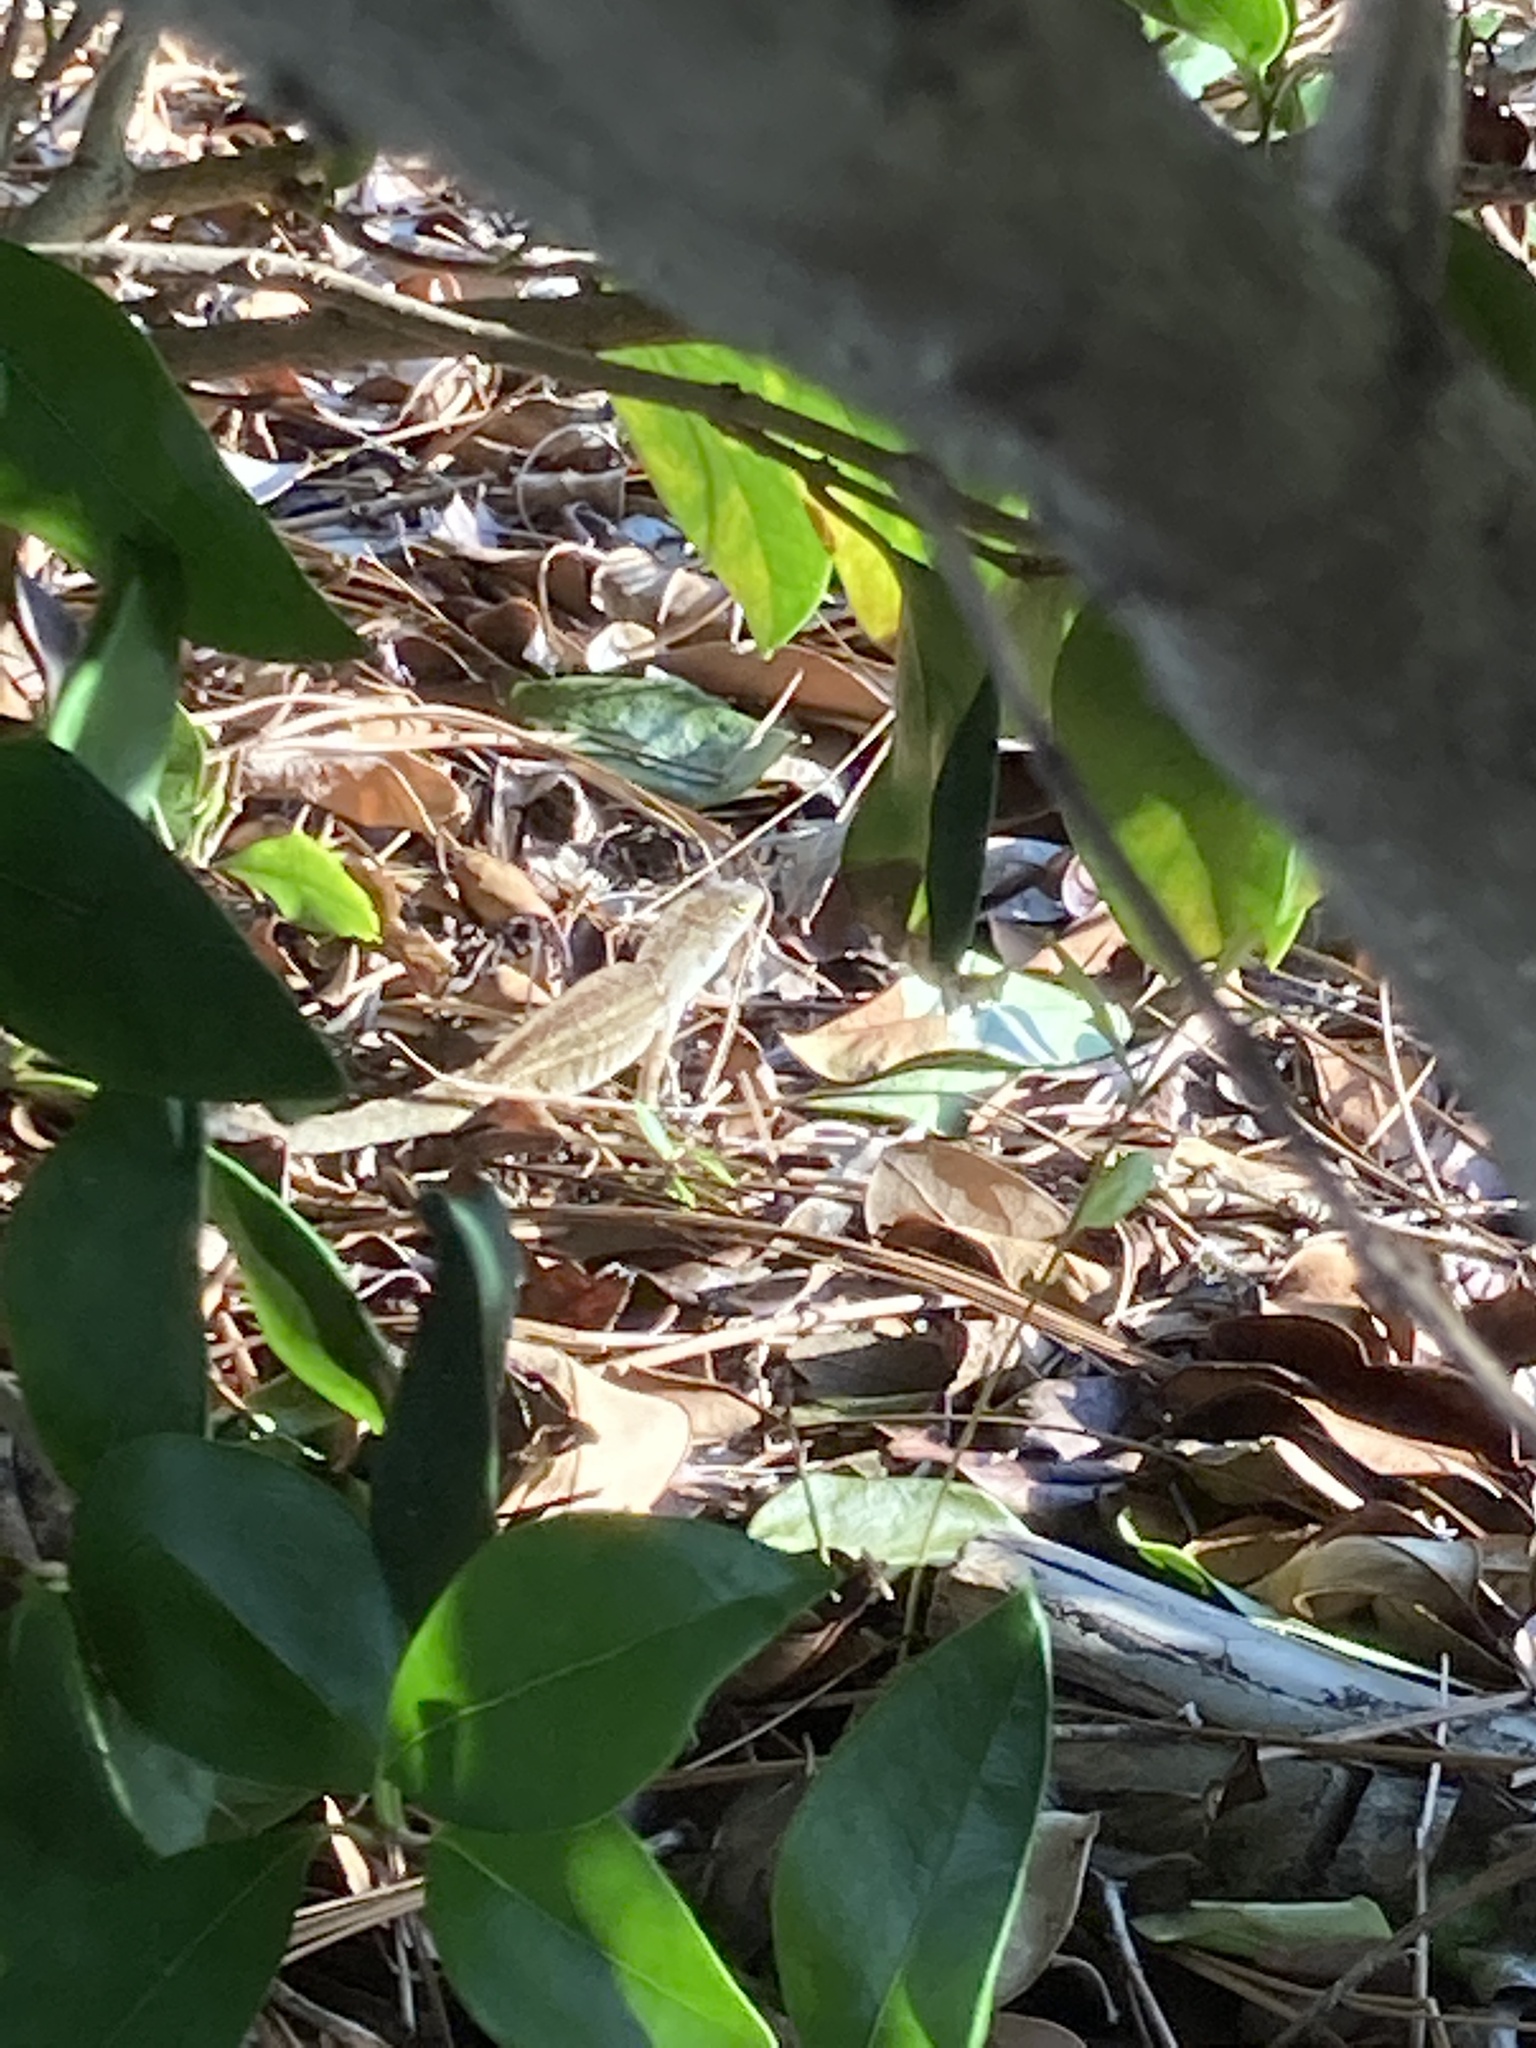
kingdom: Animalia
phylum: Chordata
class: Squamata
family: Dactyloidae
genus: Anolis
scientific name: Anolis sagrei
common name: Brown anole
